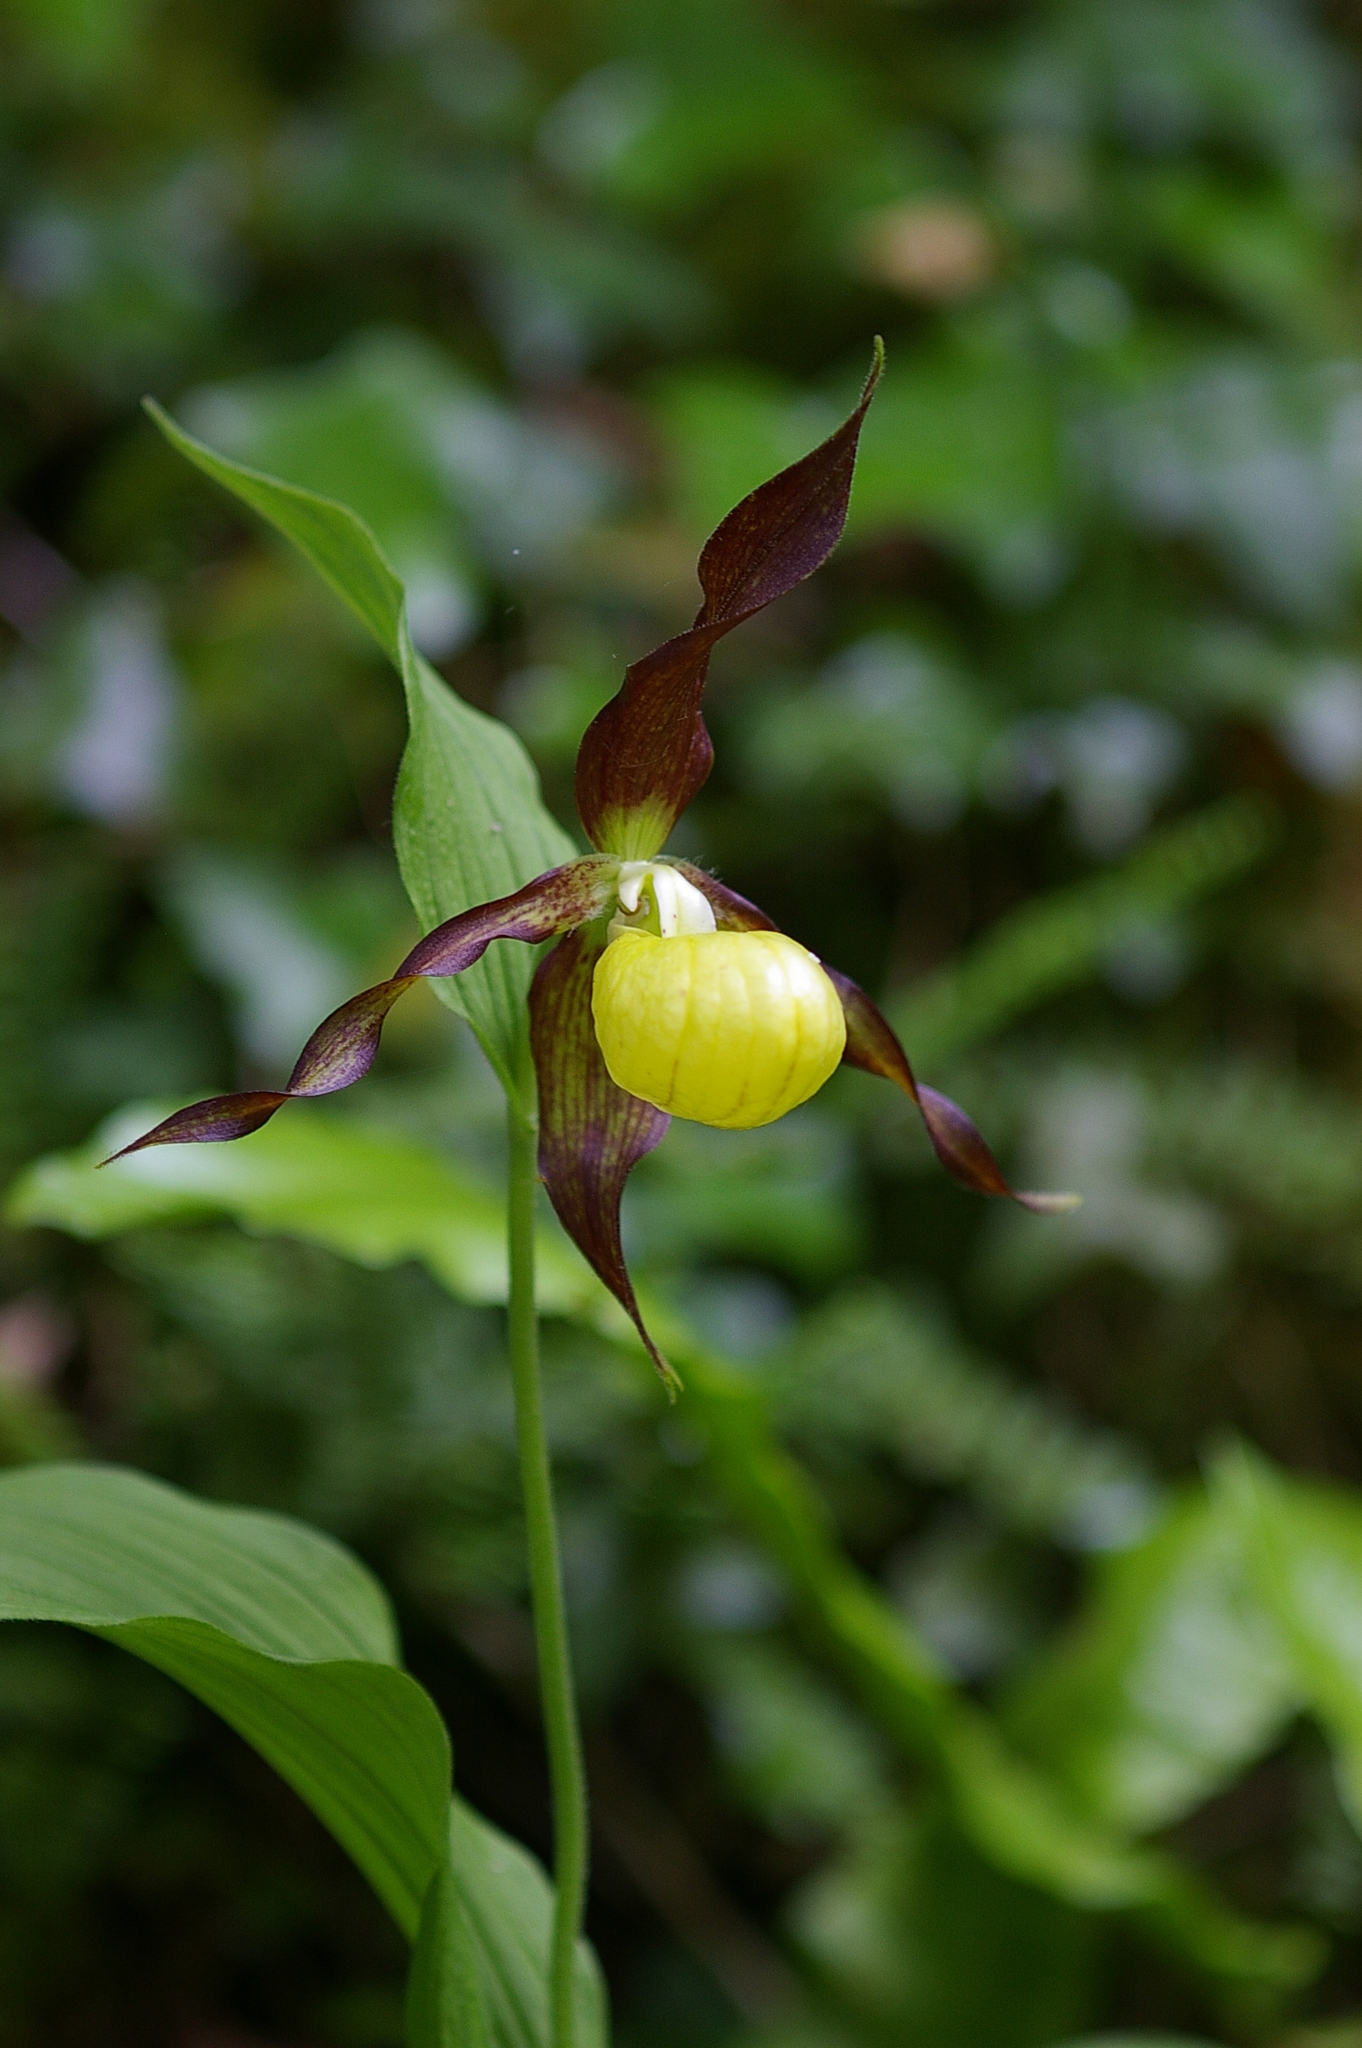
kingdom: Plantae
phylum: Tracheophyta
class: Liliopsida
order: Asparagales
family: Orchidaceae
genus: Cypripedium
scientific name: Cypripedium calceolus
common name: Lady's-slipper
